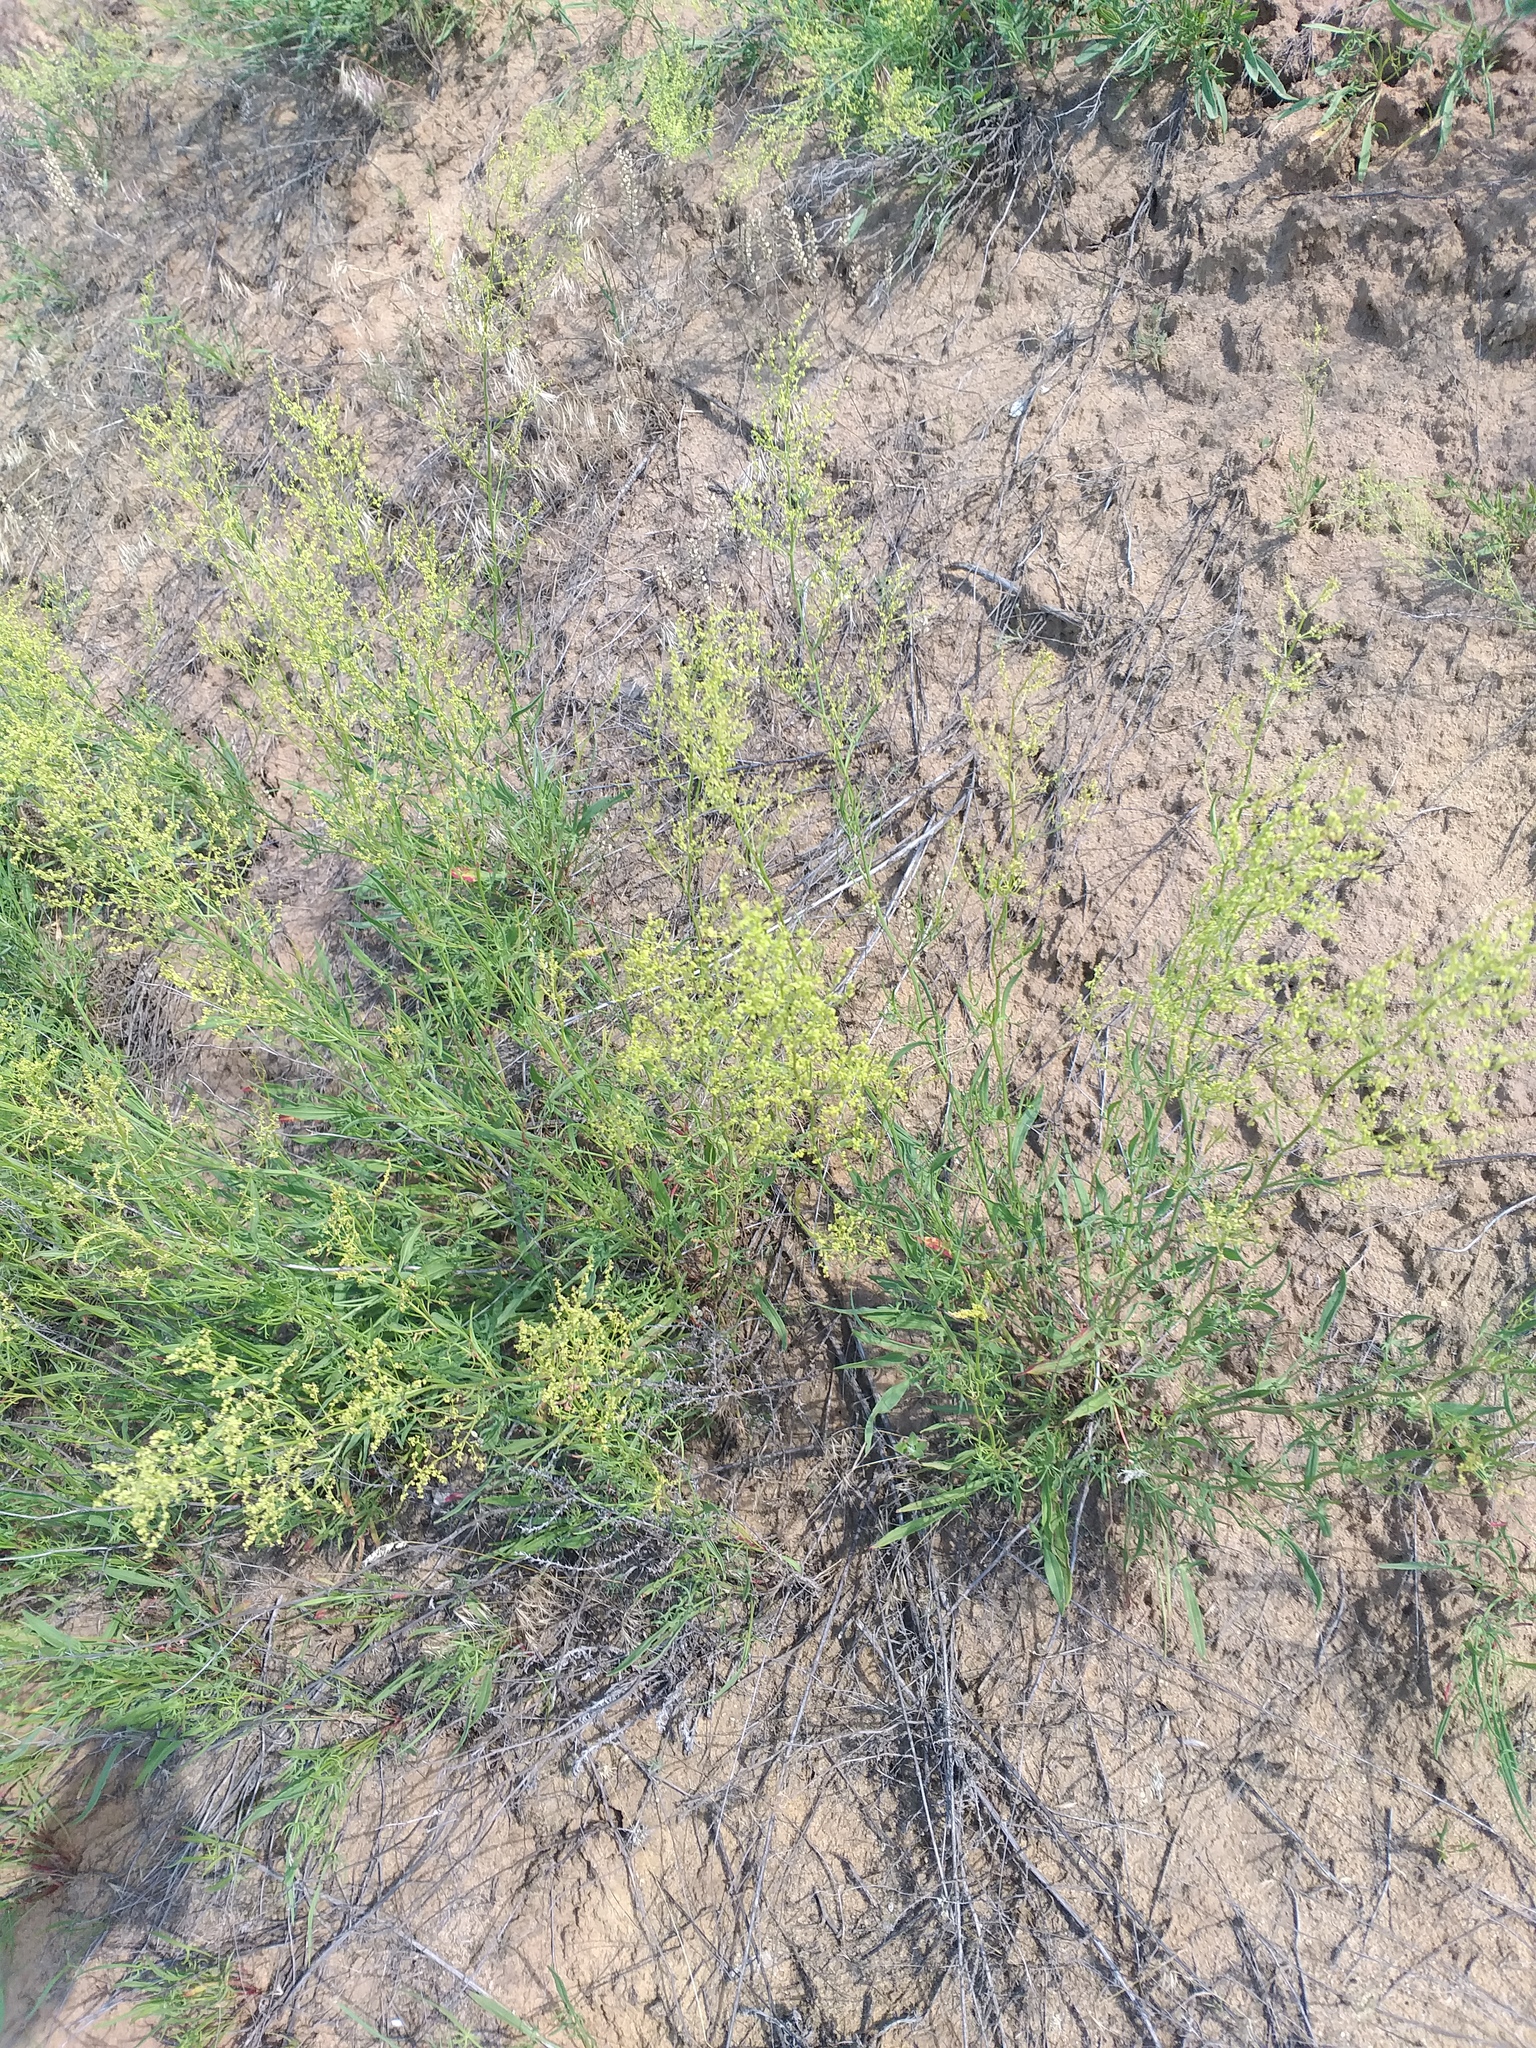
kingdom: Plantae
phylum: Tracheophyta
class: Magnoliopsida
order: Caryophyllales
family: Polygonaceae
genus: Rumex
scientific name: Rumex acetosella
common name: Common sheep sorrel
